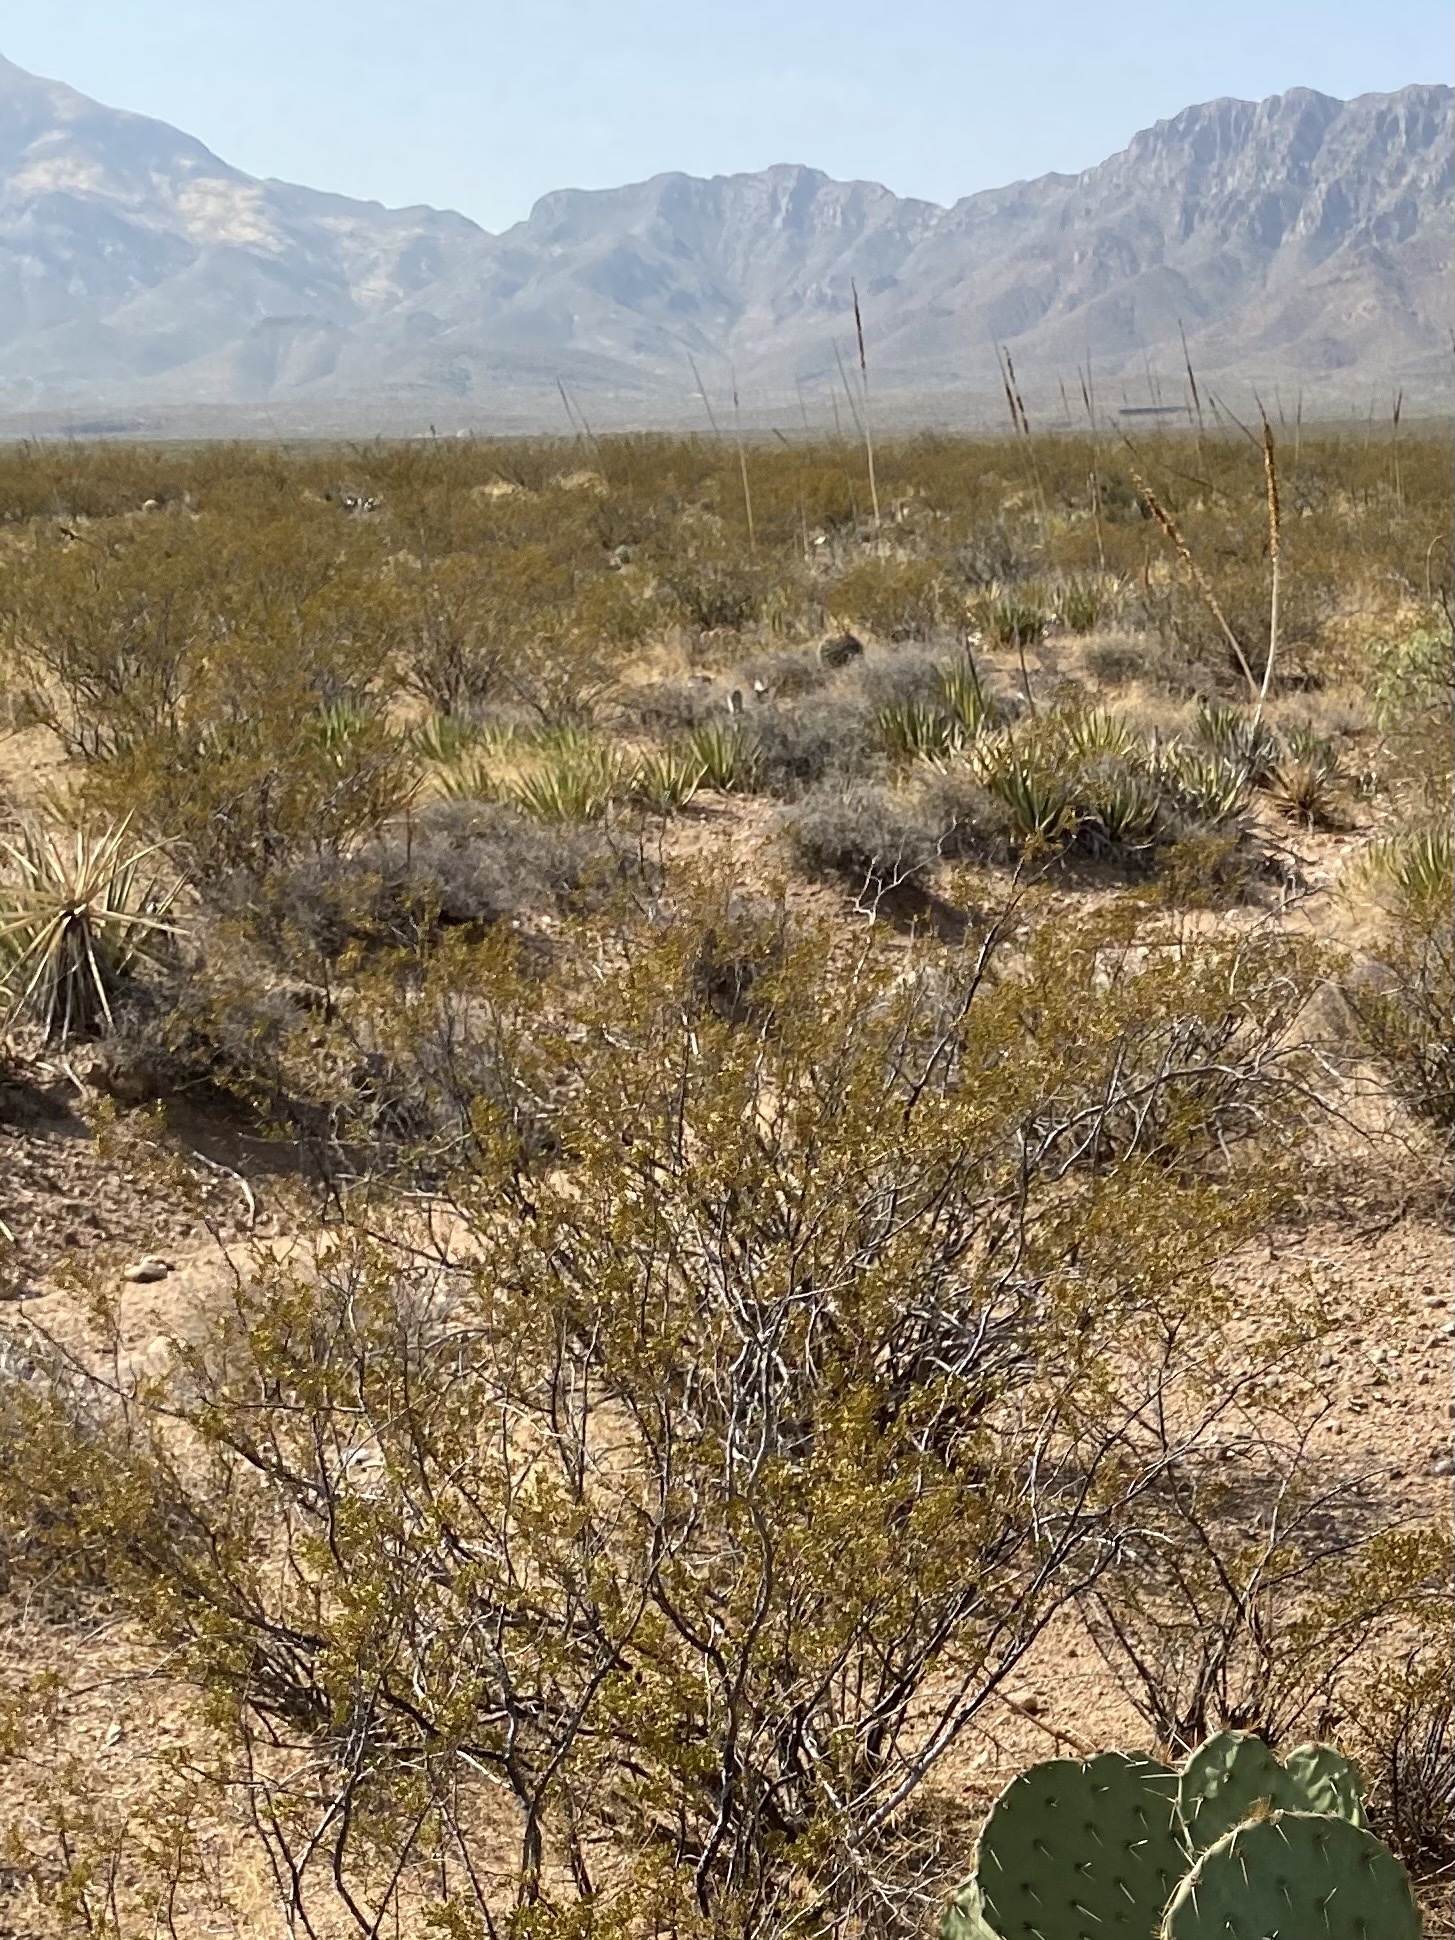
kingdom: Plantae
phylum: Tracheophyta
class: Magnoliopsida
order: Zygophyllales
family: Zygophyllaceae
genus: Larrea
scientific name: Larrea tridentata
